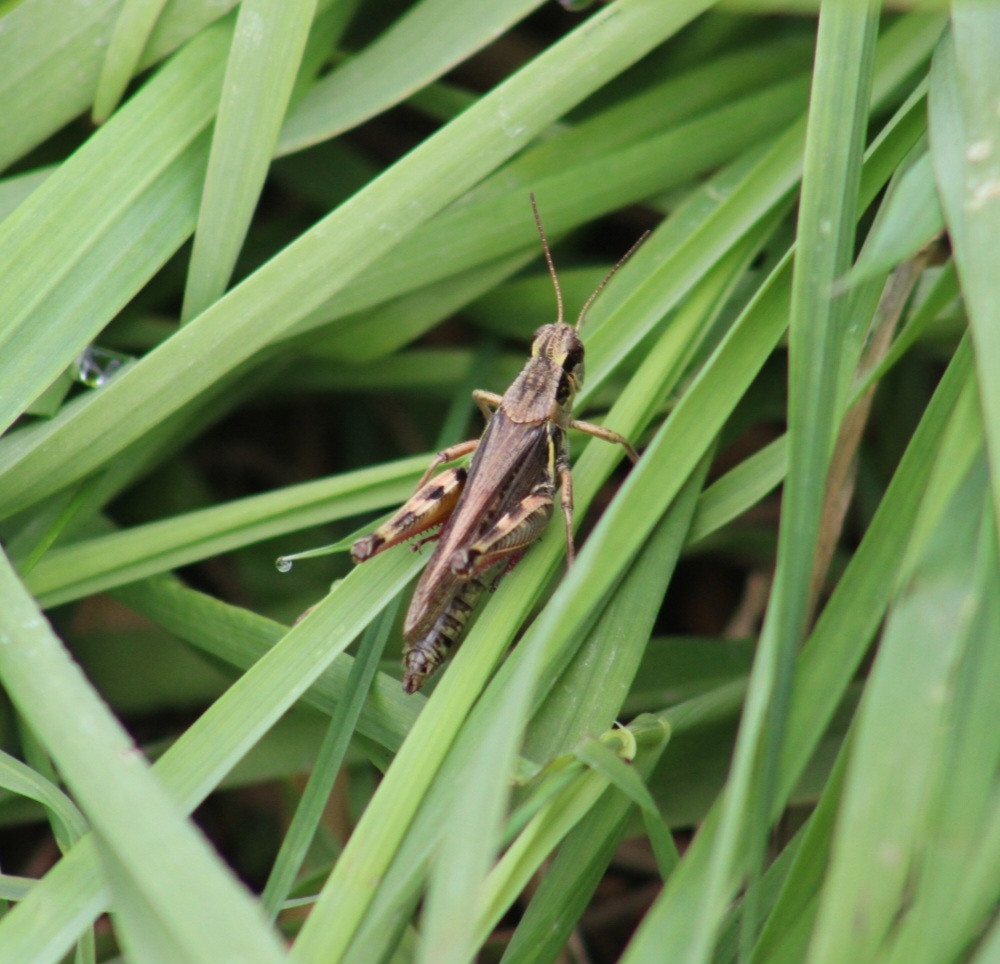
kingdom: Animalia
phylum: Arthropoda
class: Insecta
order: Orthoptera
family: Acrididae
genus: Melanoplus
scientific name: Melanoplus femurrubrum
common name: Red-legged grasshopper
